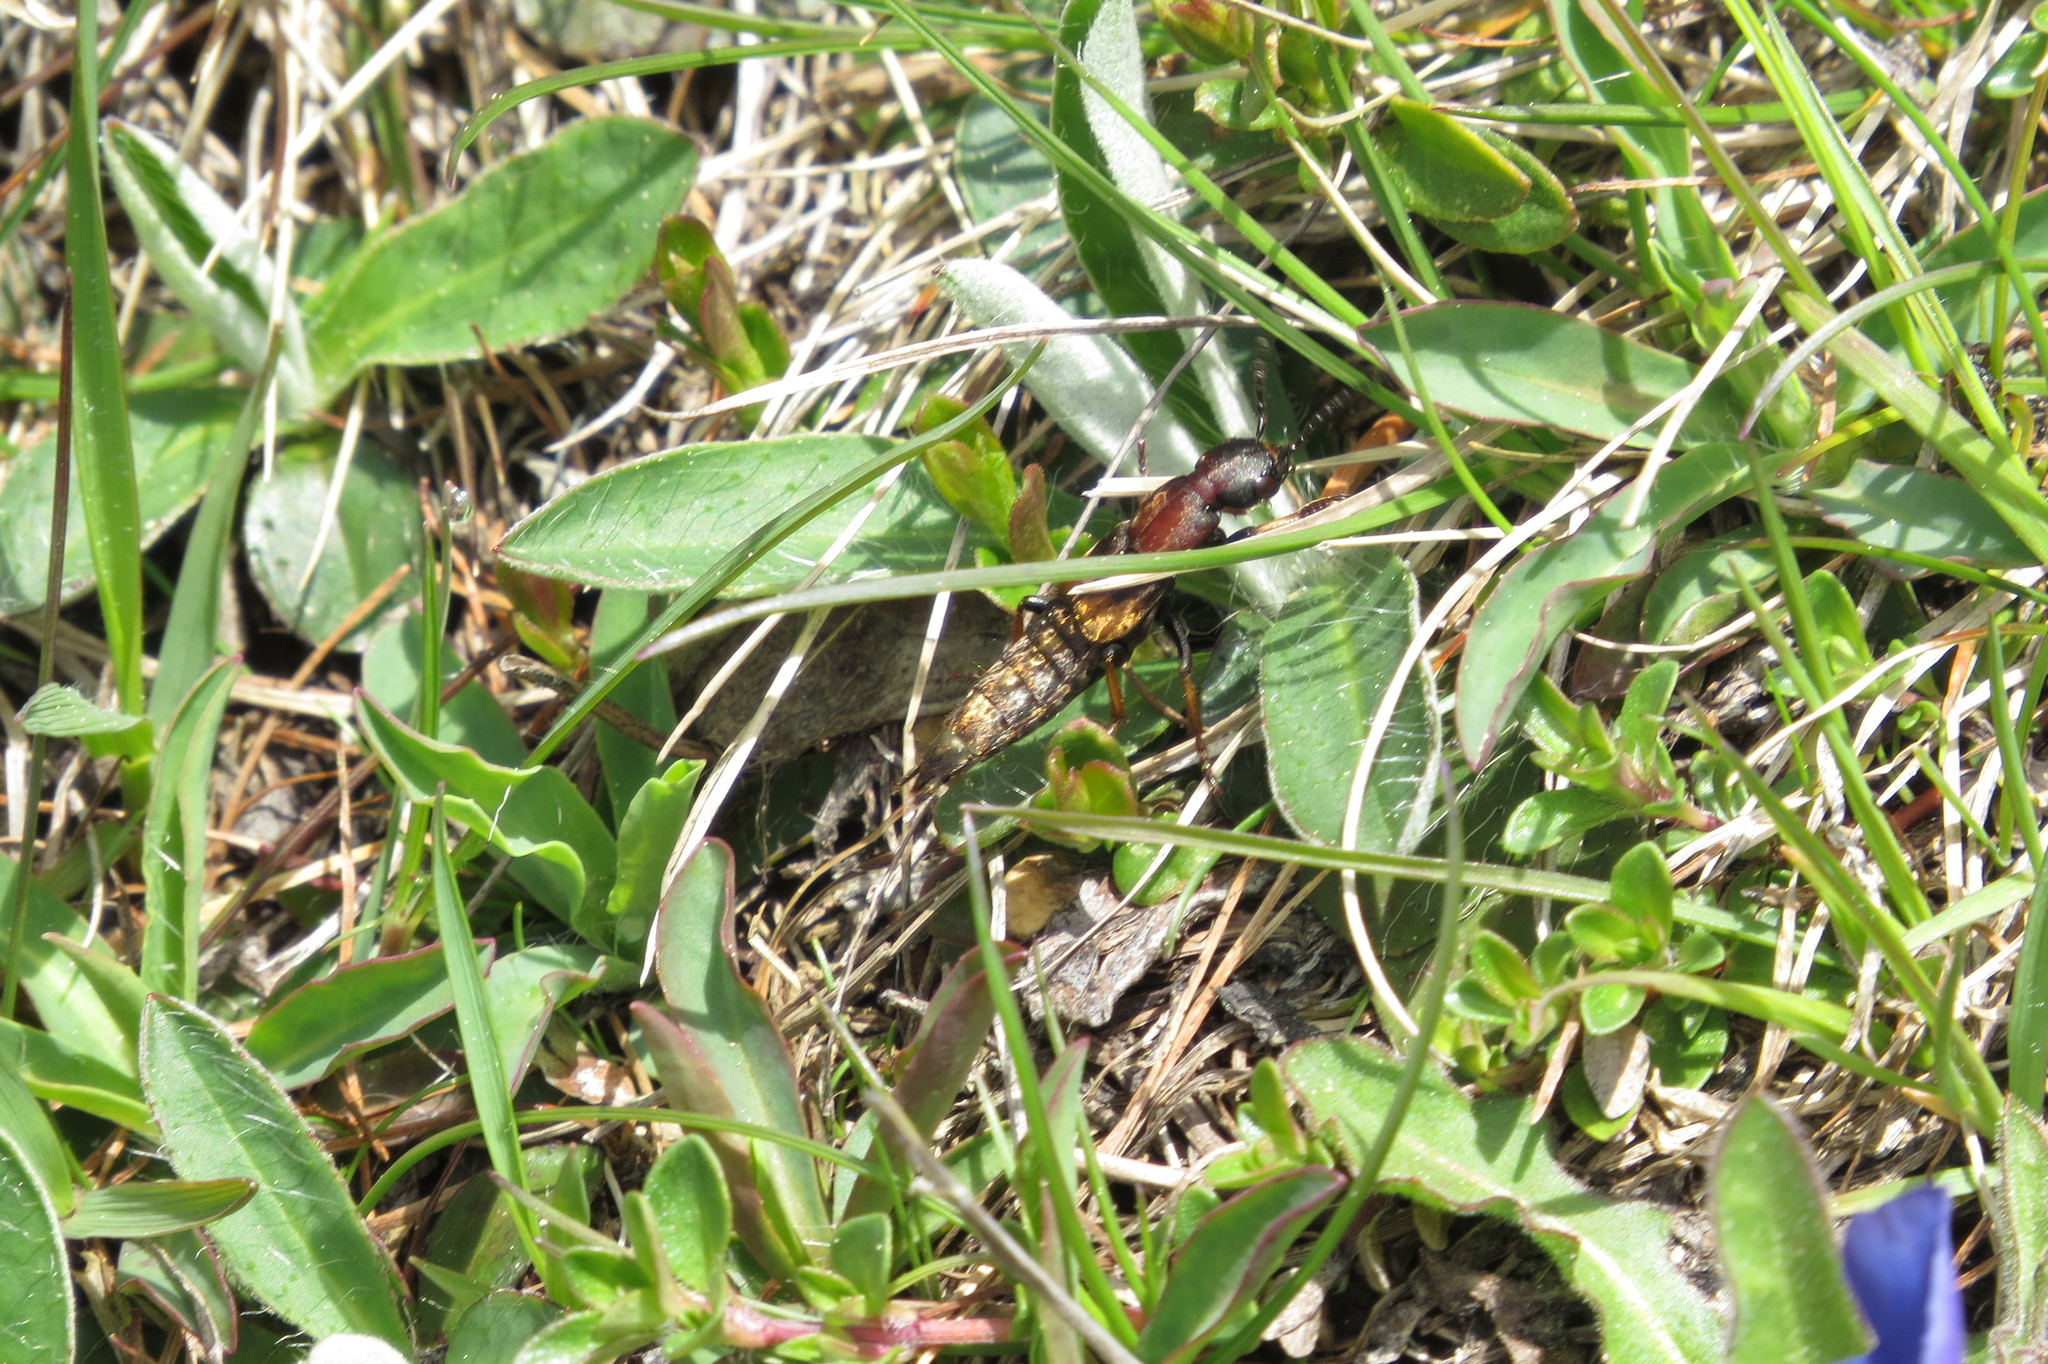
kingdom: Animalia
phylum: Arthropoda
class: Insecta
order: Coleoptera
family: Staphylinidae
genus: Dinothenarus
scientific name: Dinothenarus fossor
